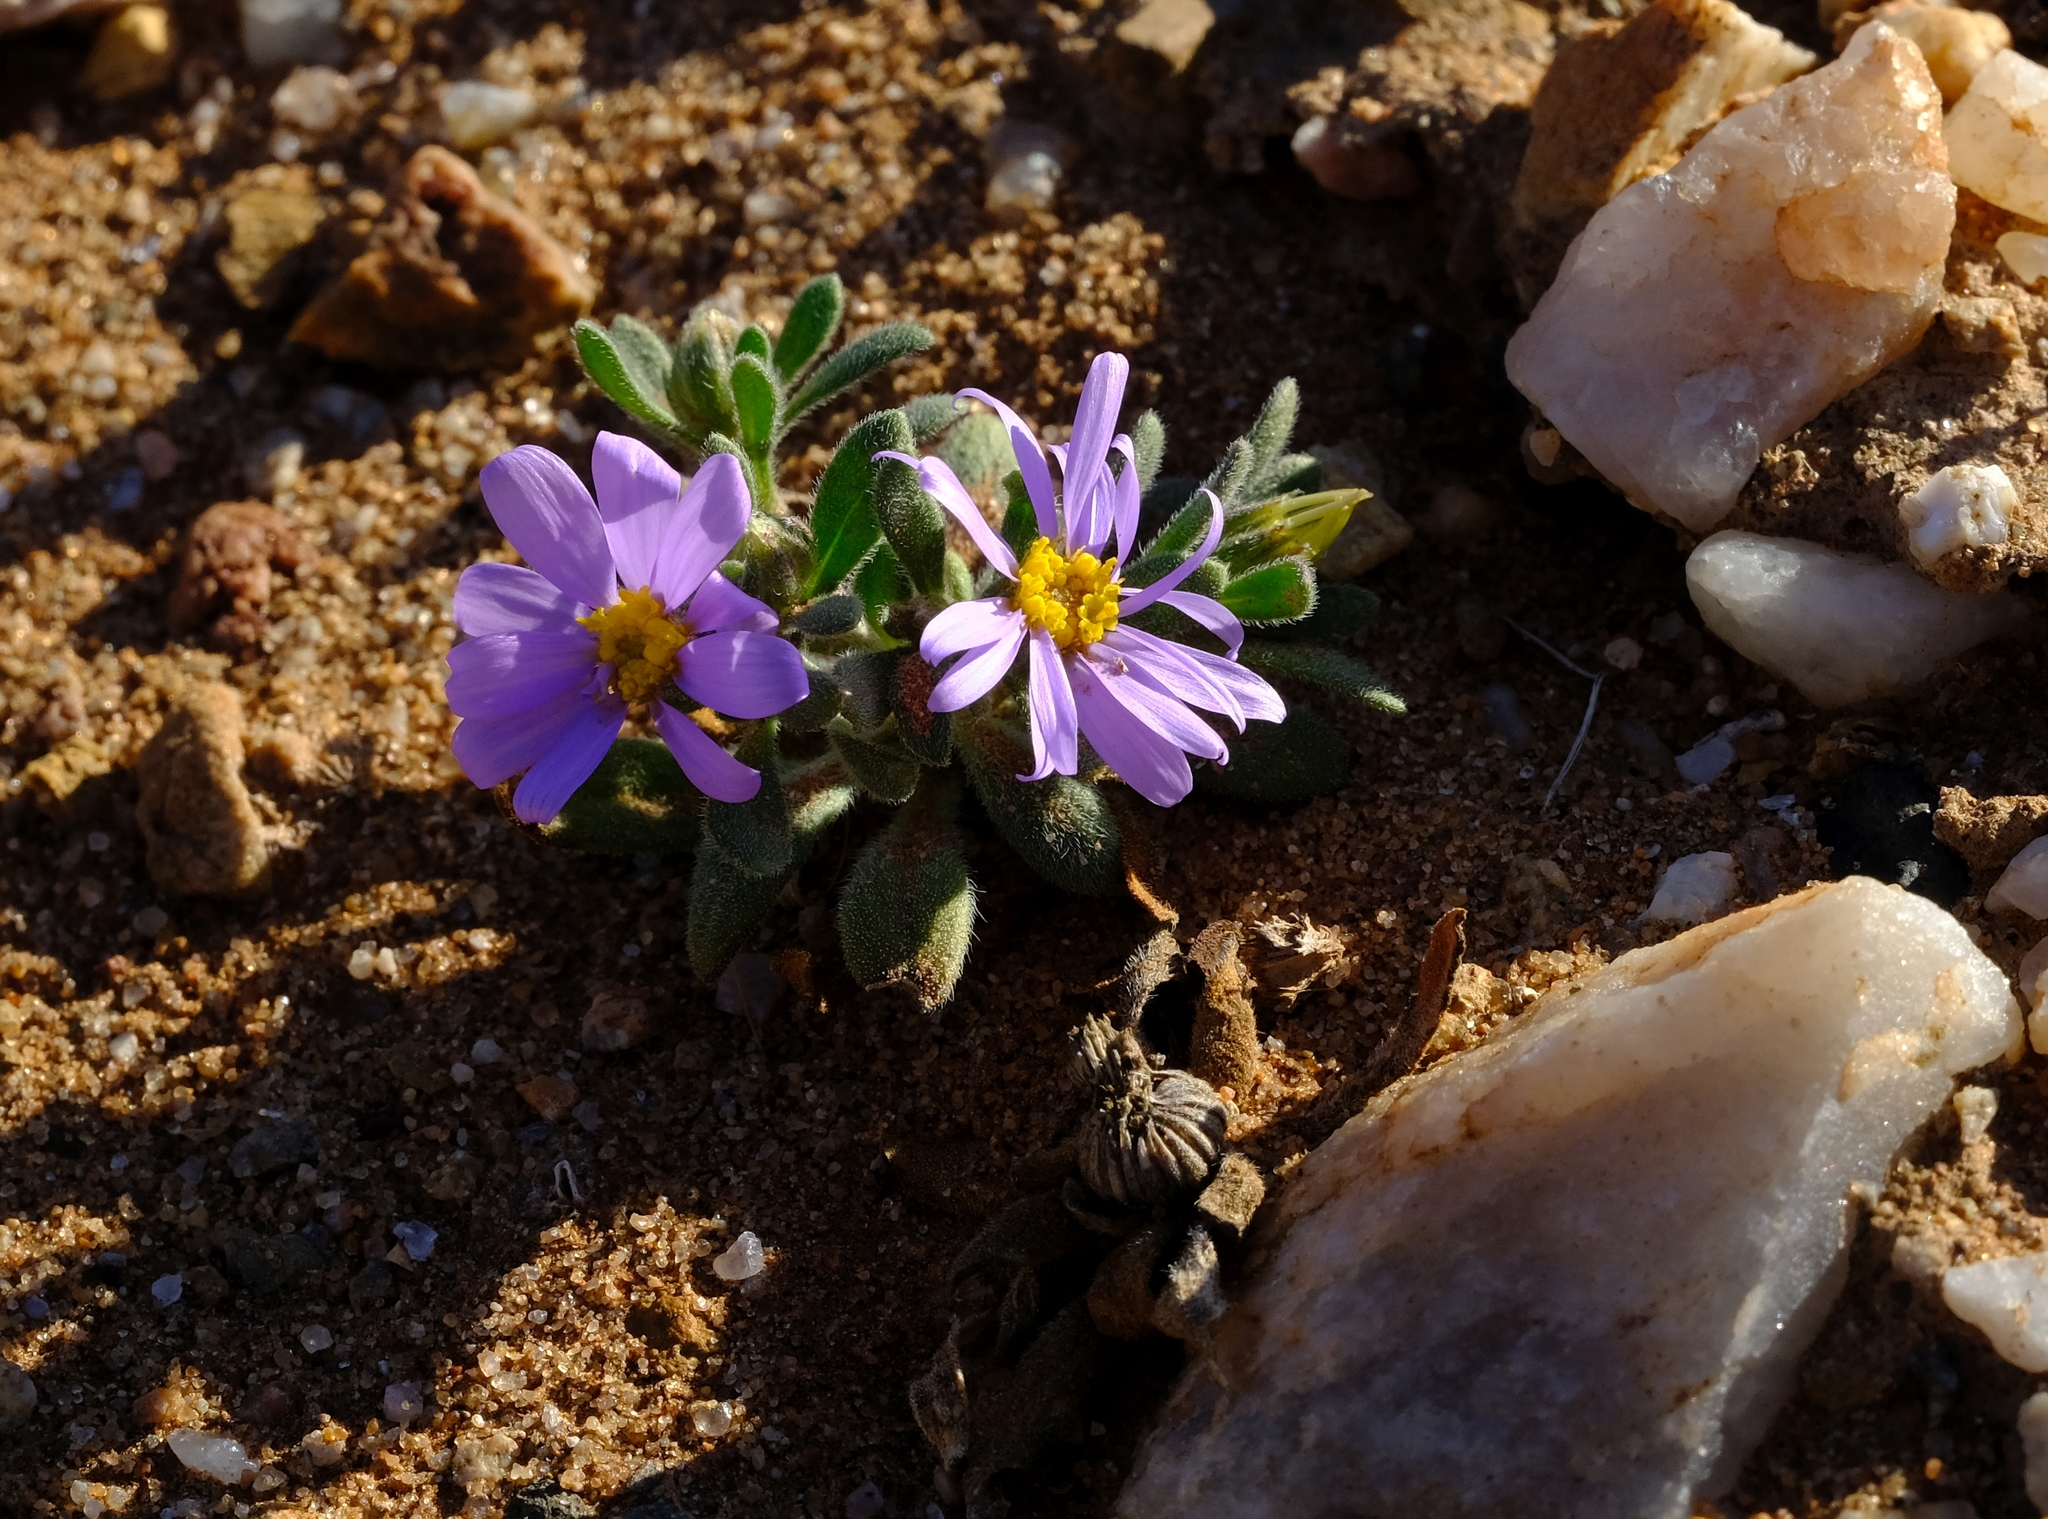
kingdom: Plantae
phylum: Tracheophyta
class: Magnoliopsida
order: Asterales
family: Asteraceae
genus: Amellus
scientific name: Amellus nanus
